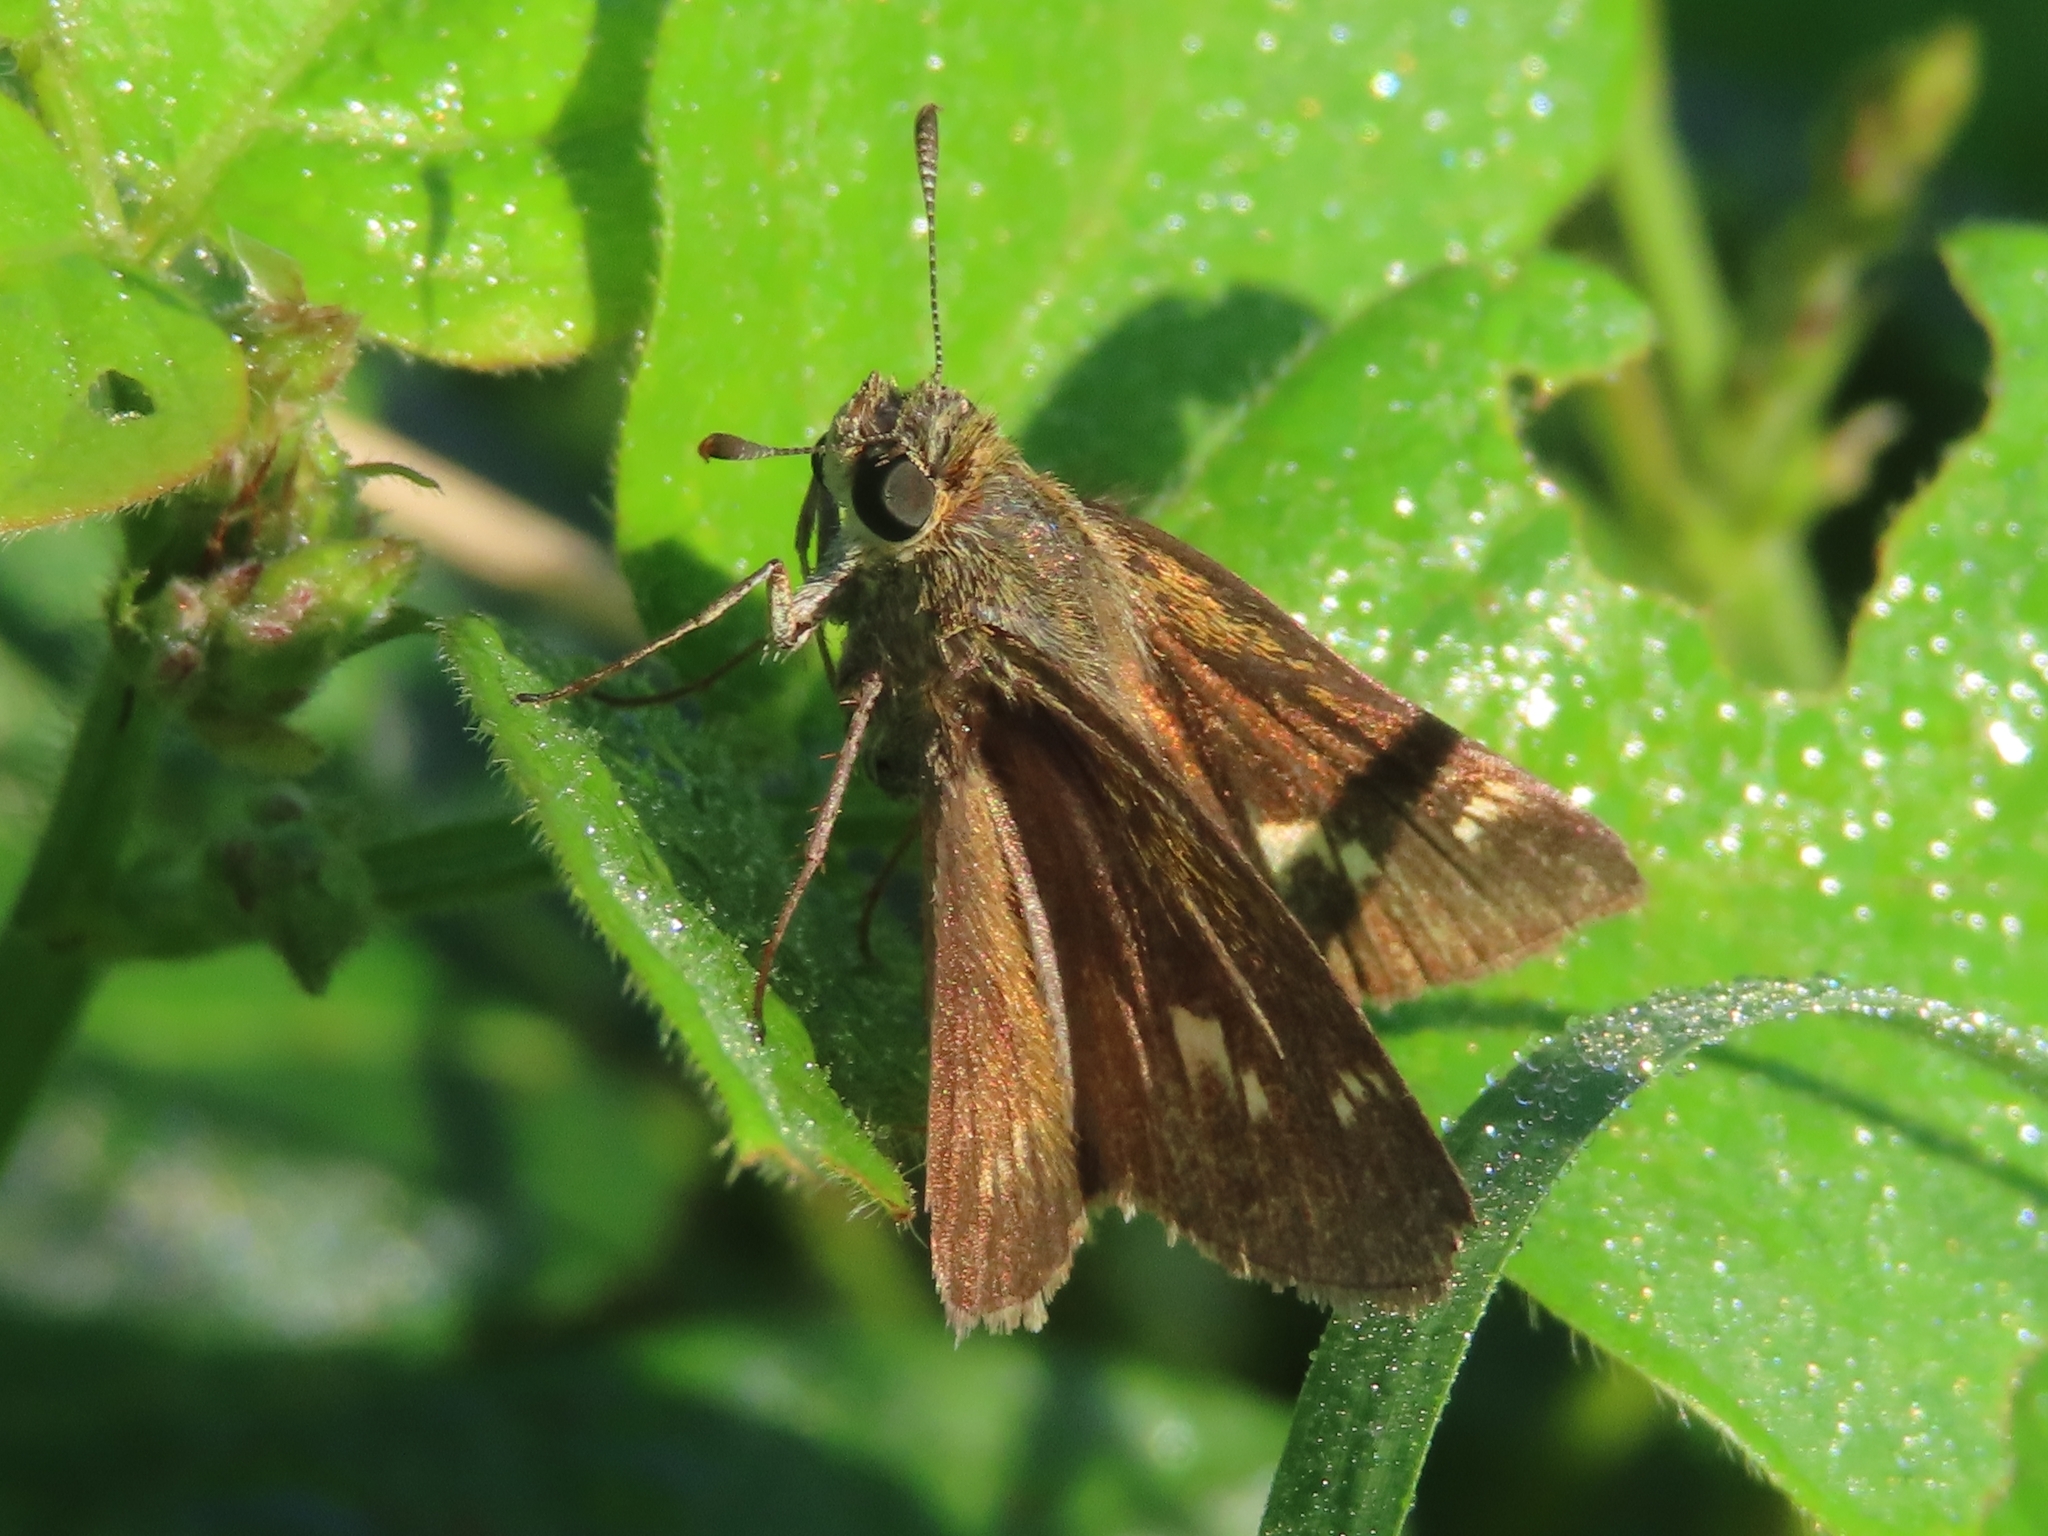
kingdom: Animalia
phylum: Arthropoda
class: Insecta
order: Lepidoptera
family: Hesperiidae
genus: Polites
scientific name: Polites origenes
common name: Crossline skipper
